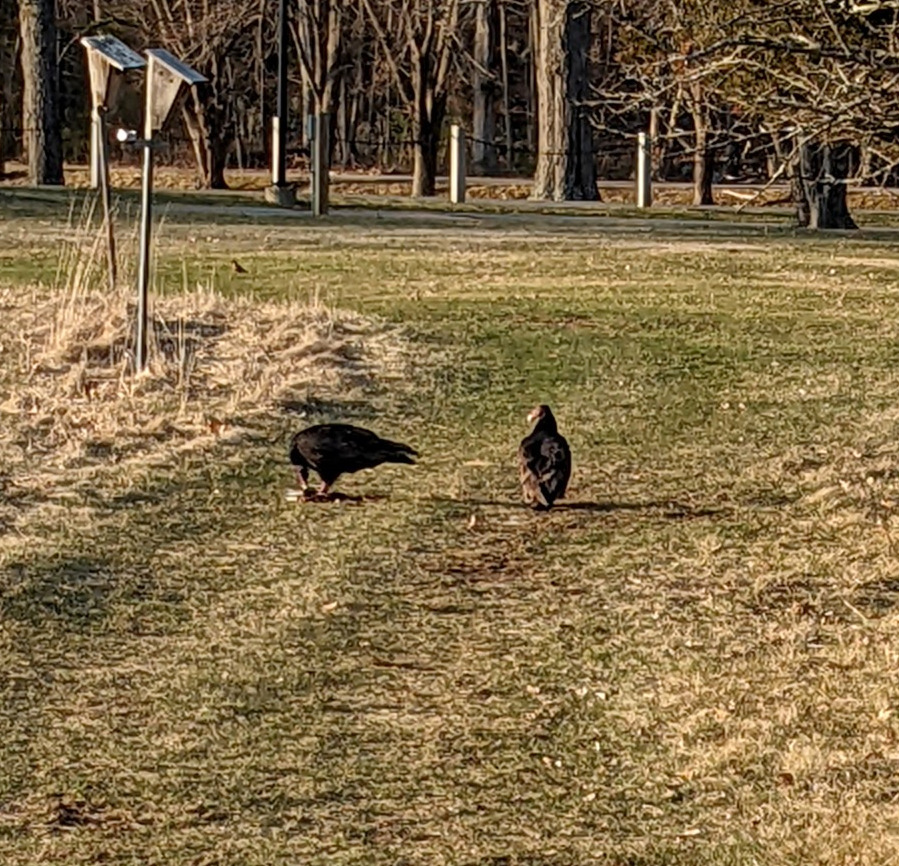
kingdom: Animalia
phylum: Chordata
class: Aves
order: Accipitriformes
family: Cathartidae
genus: Cathartes
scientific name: Cathartes aura
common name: Turkey vulture
